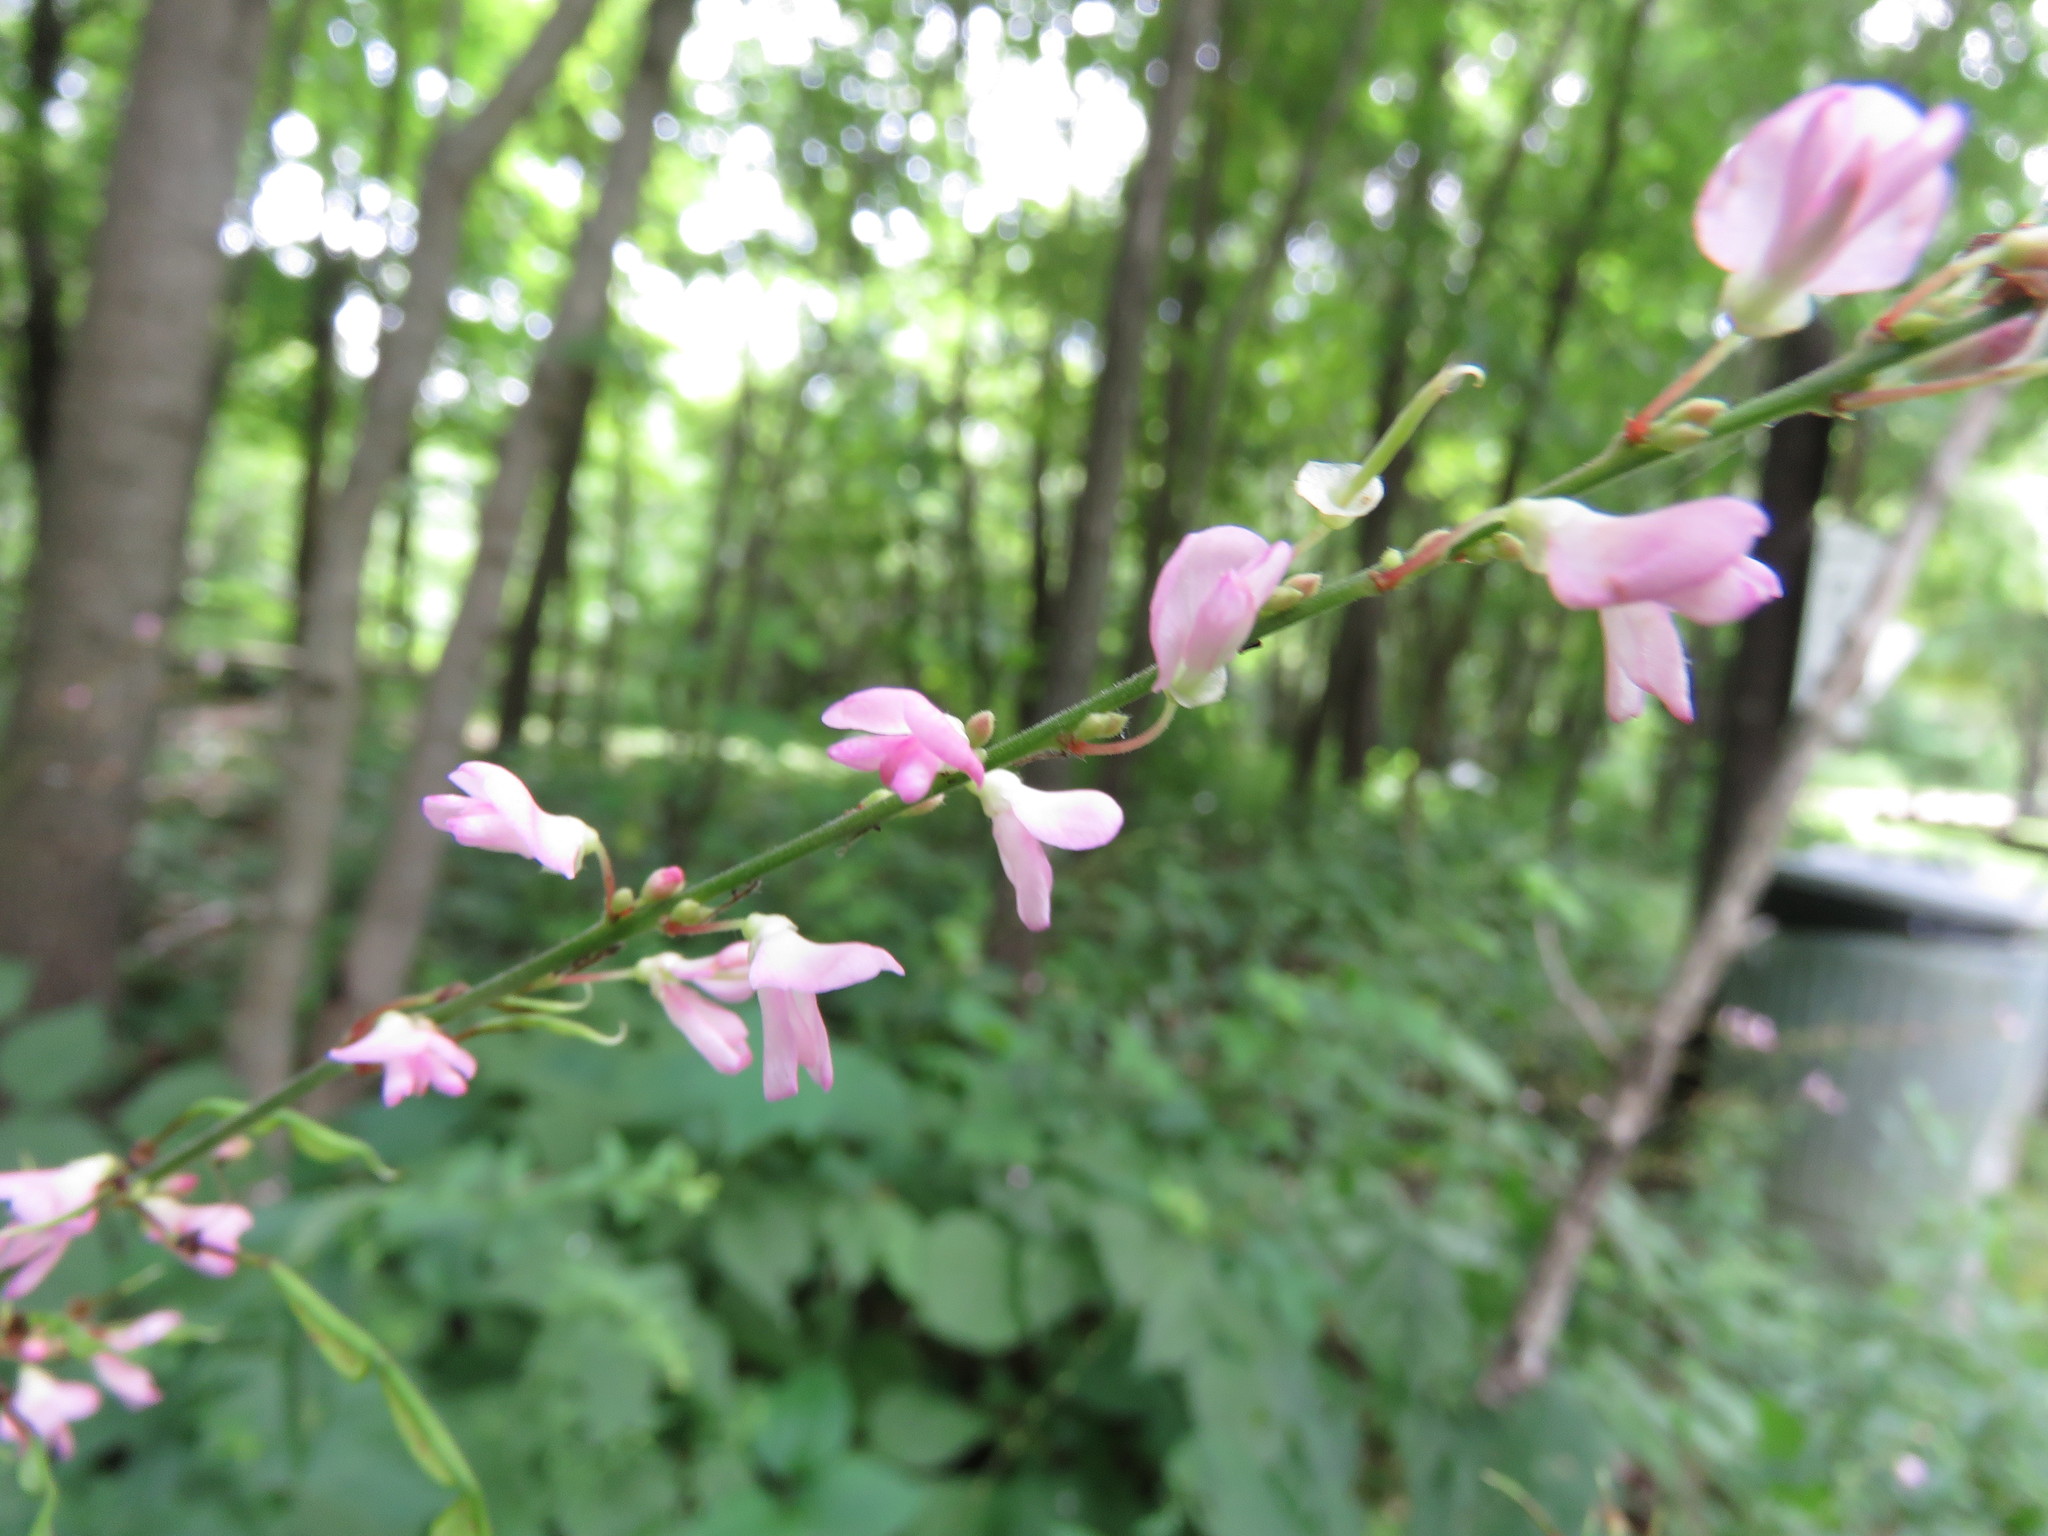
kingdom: Plantae
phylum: Tracheophyta
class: Magnoliopsida
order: Fabales
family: Fabaceae
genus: Hylodesmum
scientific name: Hylodesmum glutinosum
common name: Clustered-leaved tick-trefoil
